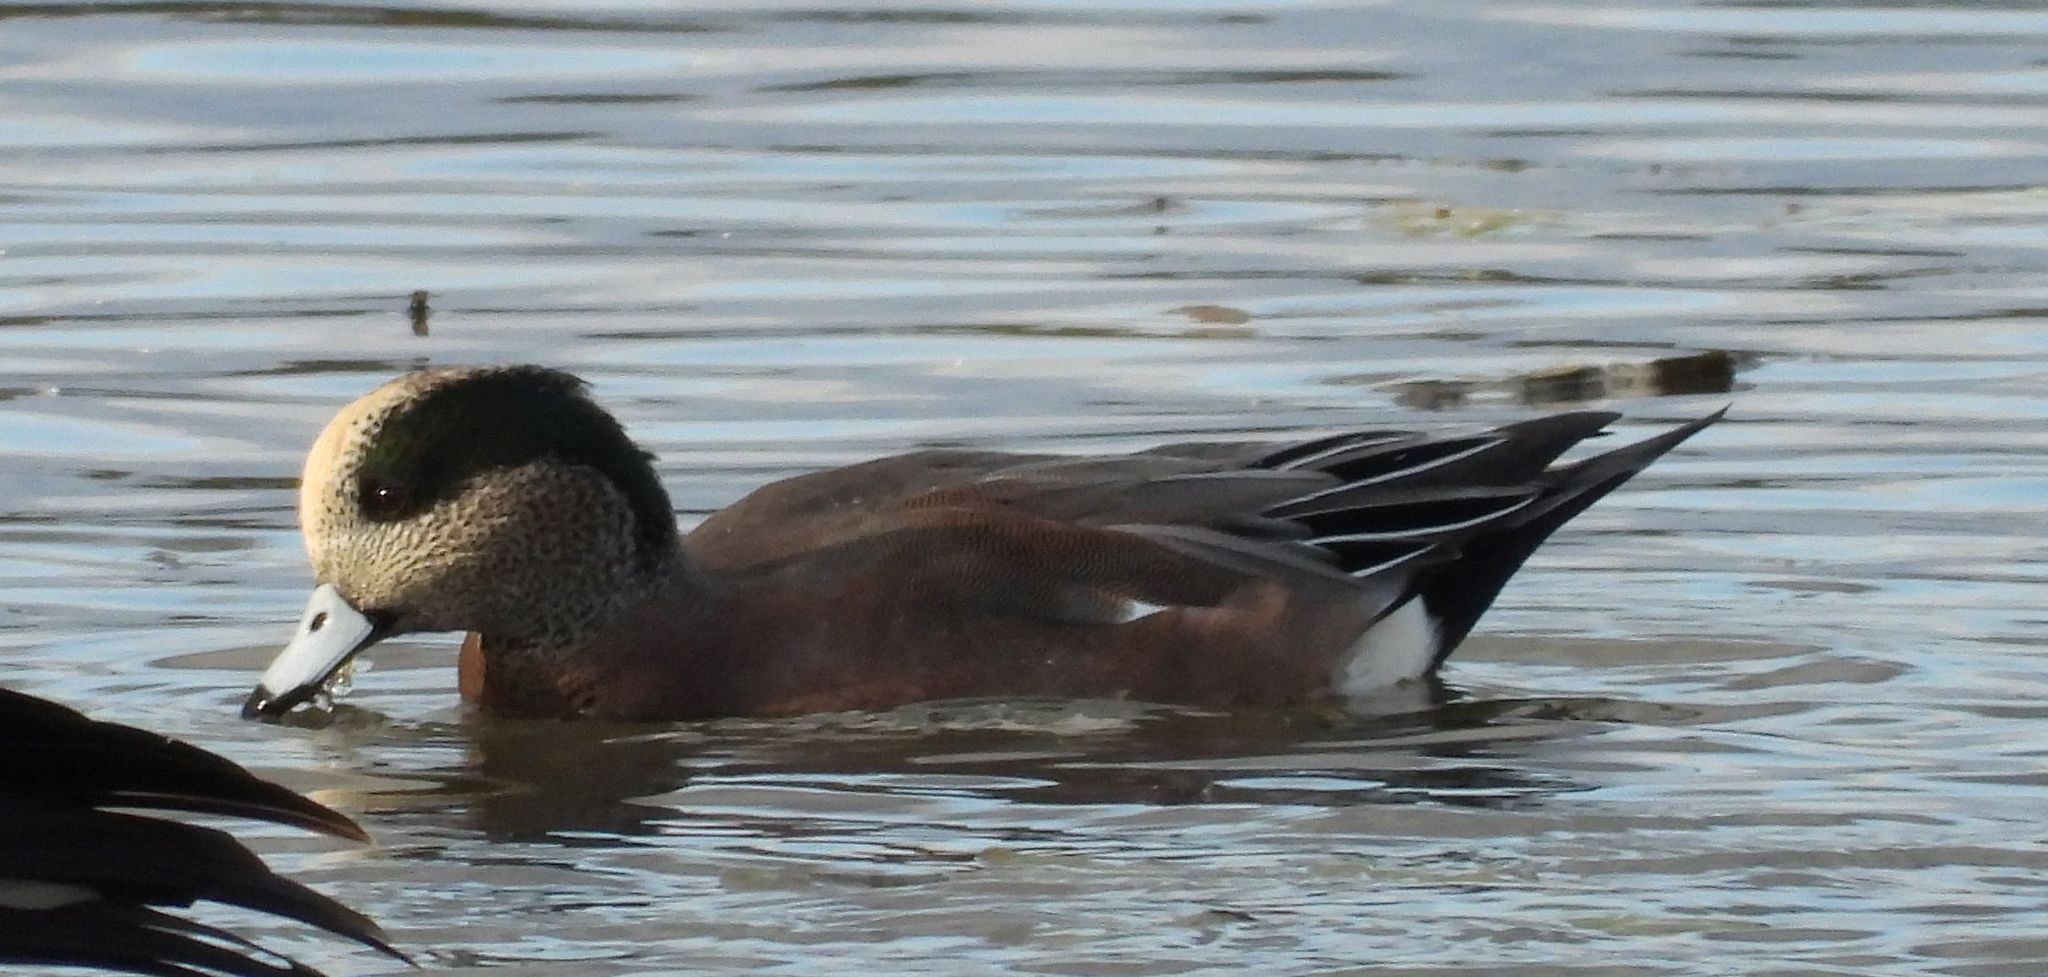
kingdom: Animalia
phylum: Chordata
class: Aves
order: Anseriformes
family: Anatidae
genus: Mareca
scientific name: Mareca americana
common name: American wigeon
